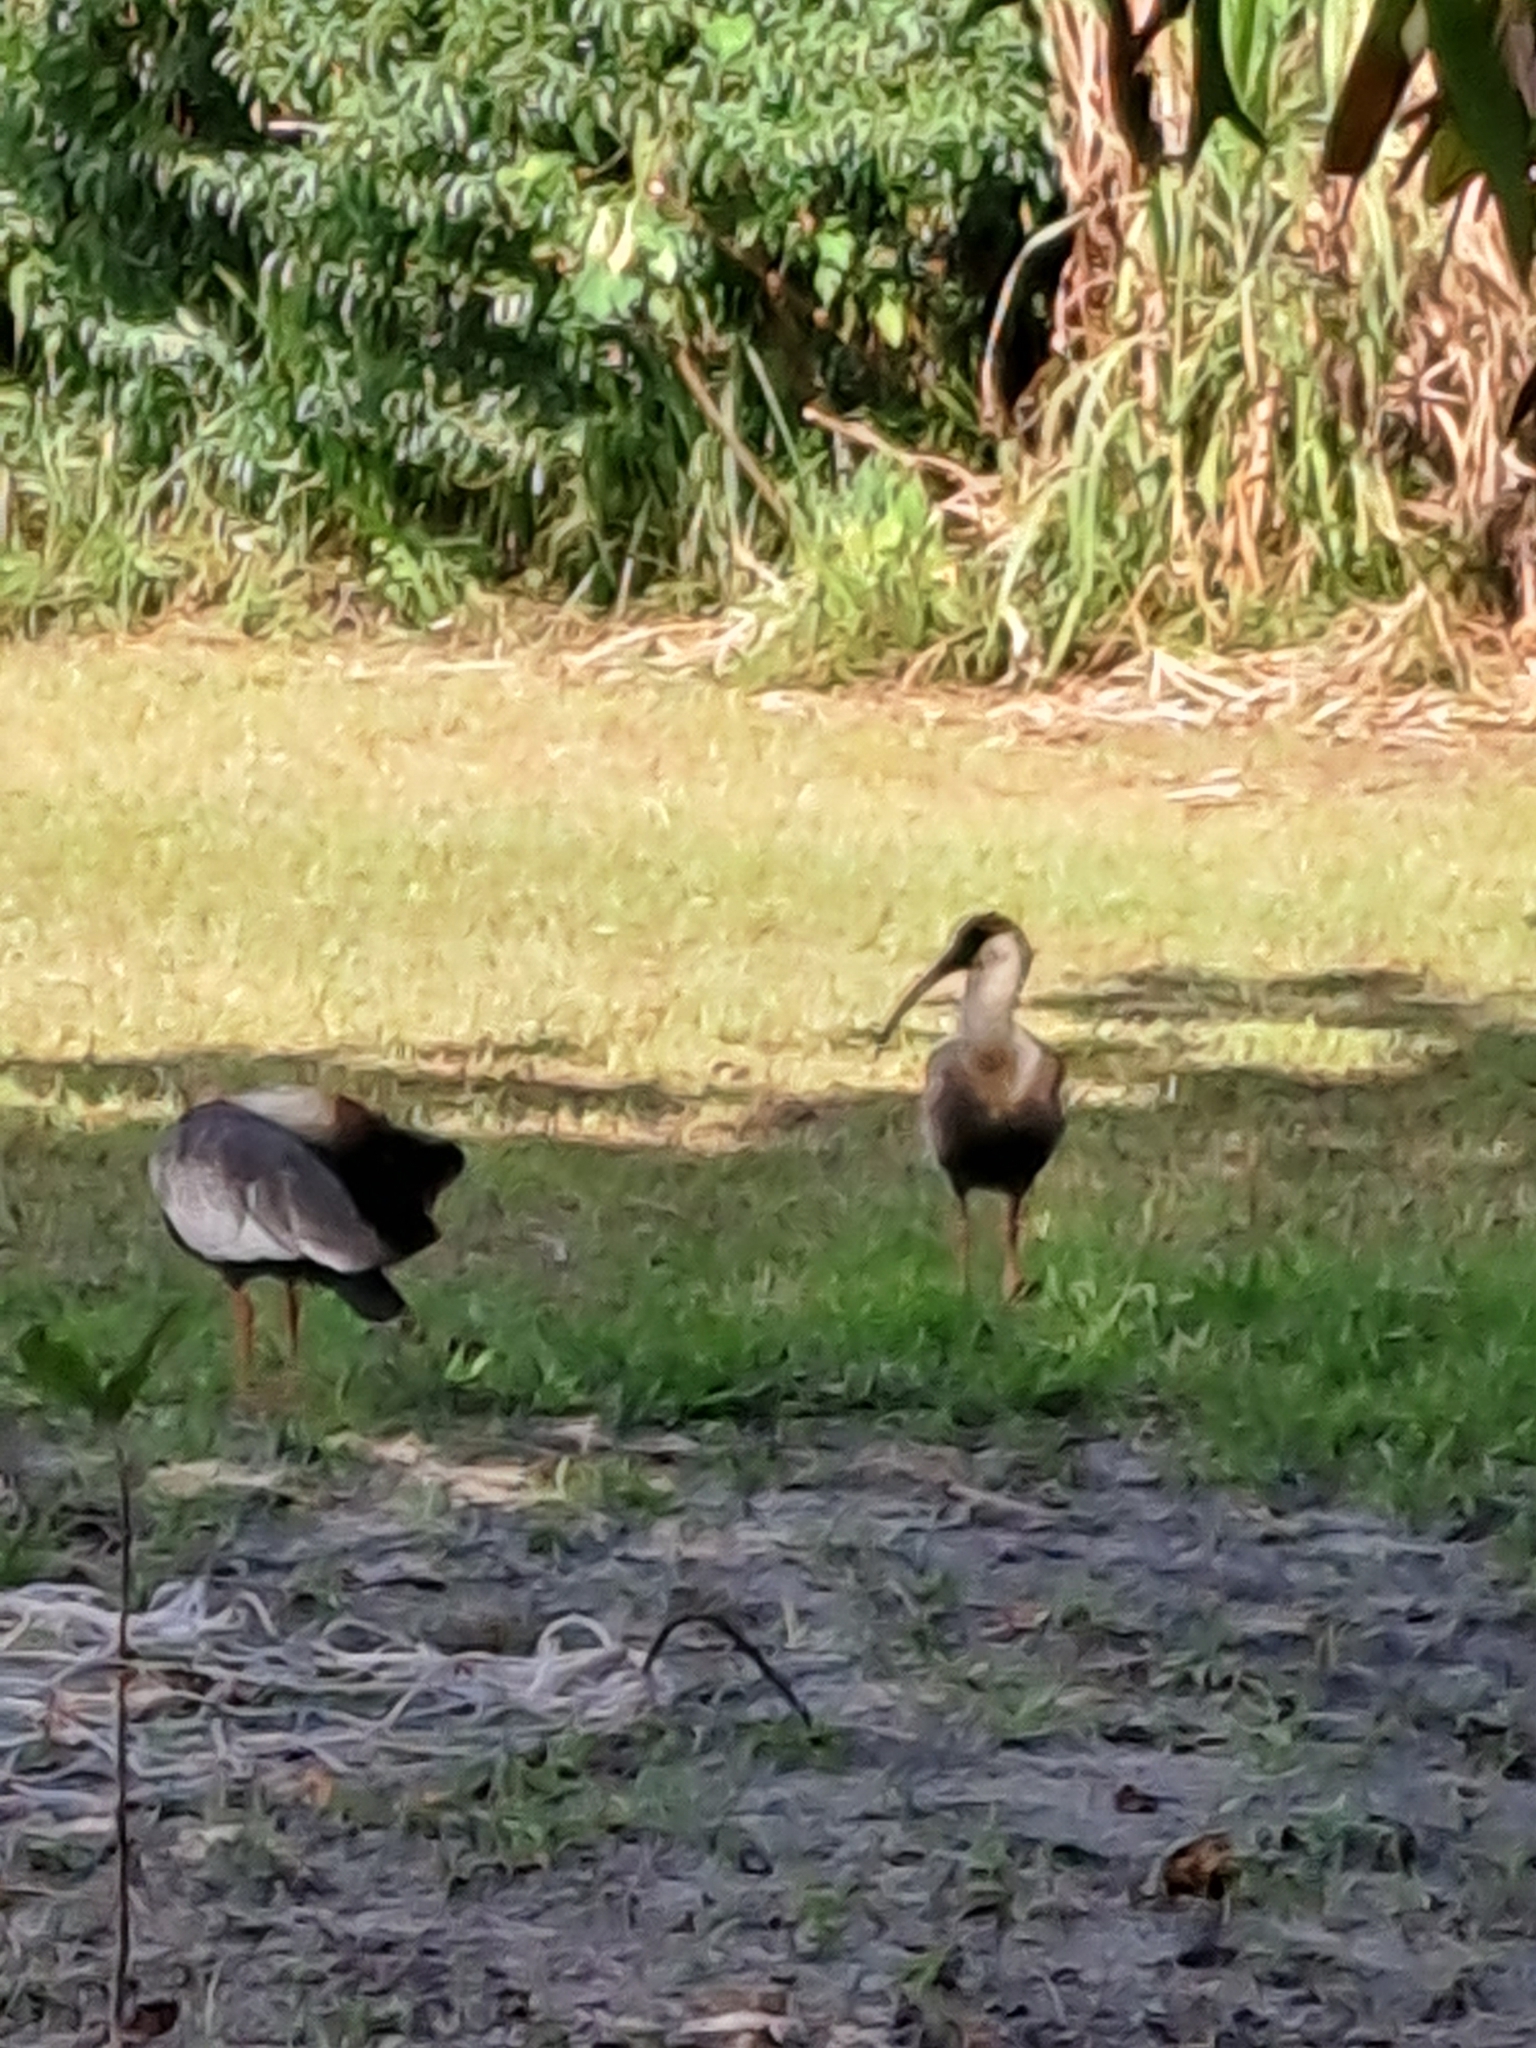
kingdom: Animalia
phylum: Chordata
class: Aves
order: Pelecaniformes
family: Threskiornithidae
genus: Theristicus
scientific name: Theristicus caudatus
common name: Buff-necked ibis
